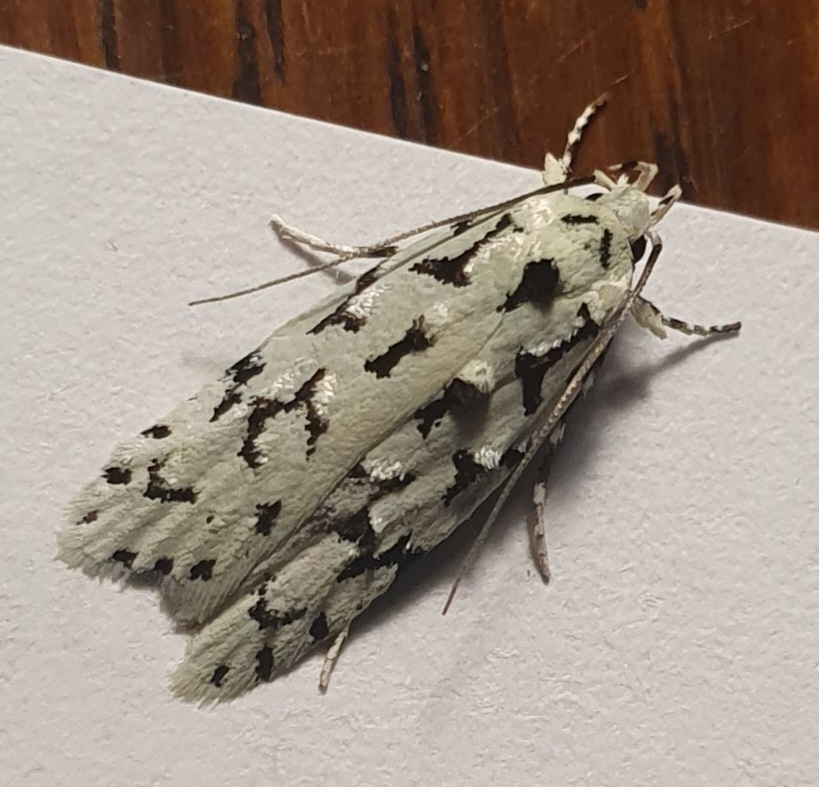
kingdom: Animalia
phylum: Arthropoda
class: Insecta
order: Lepidoptera
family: Oecophoridae
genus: Izatha
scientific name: Izatha huttoni
